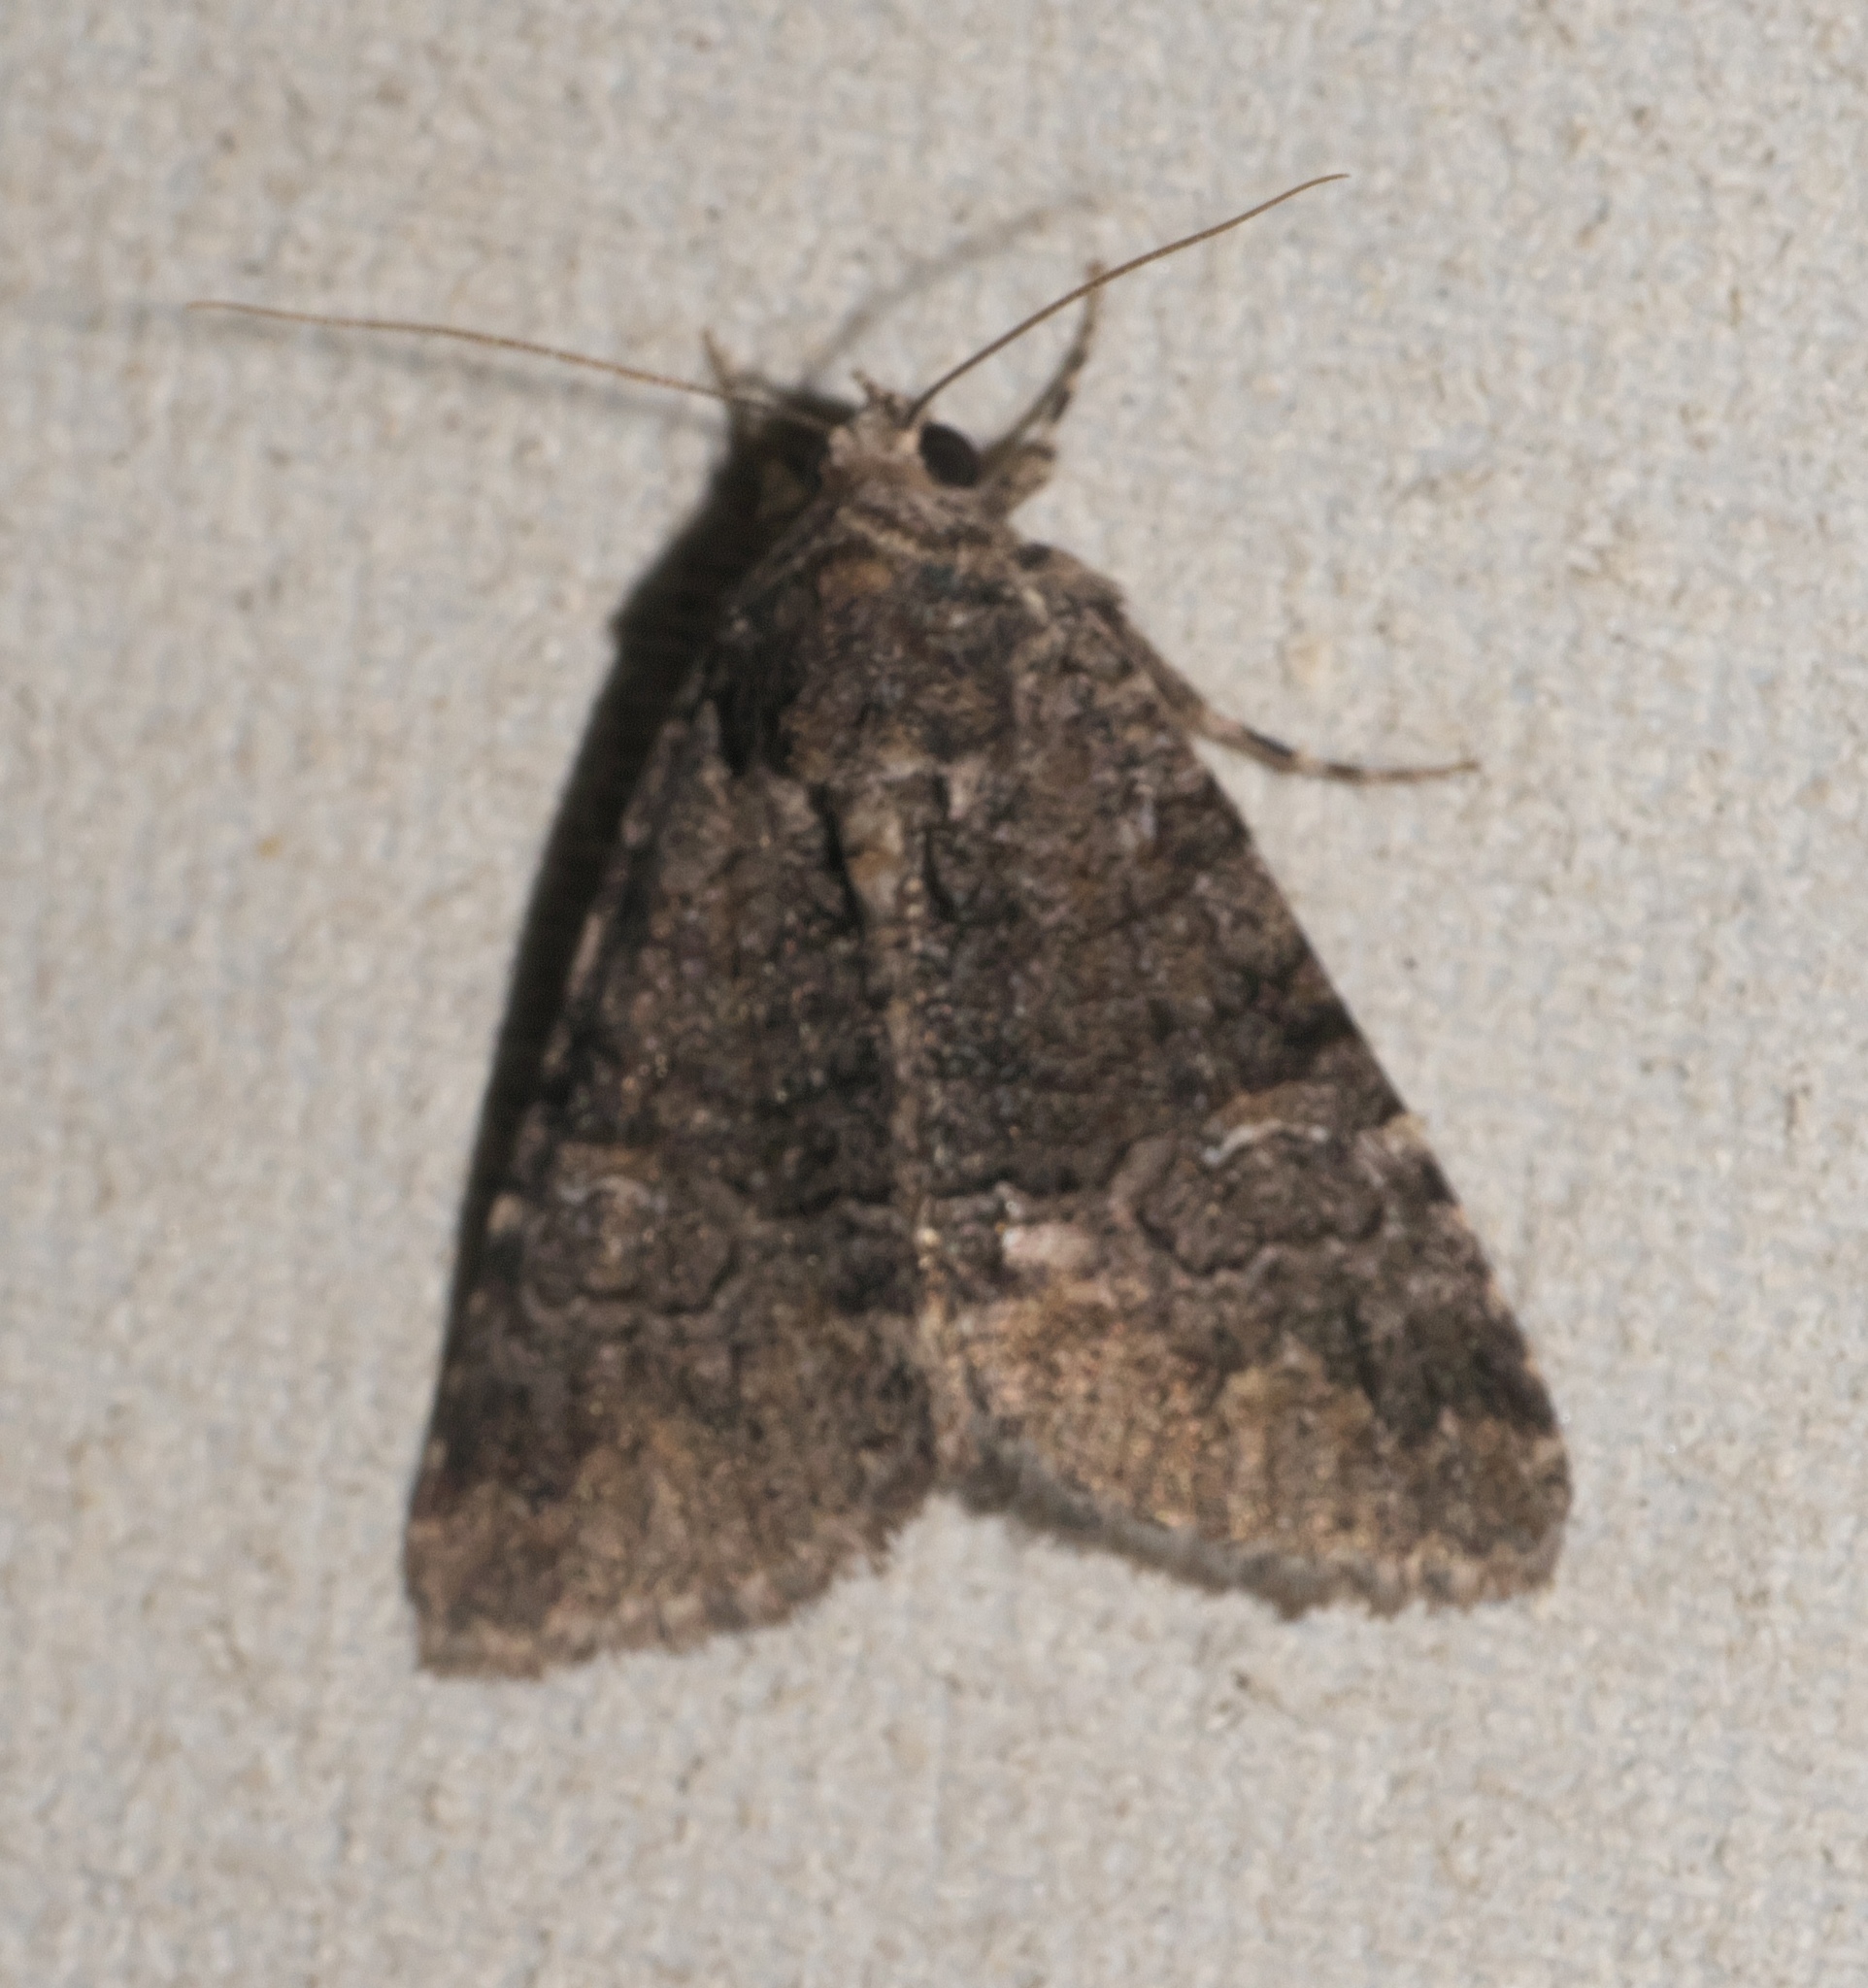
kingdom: Animalia
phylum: Arthropoda
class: Insecta
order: Lepidoptera
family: Erebidae
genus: Elousa
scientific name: Elousa mima
